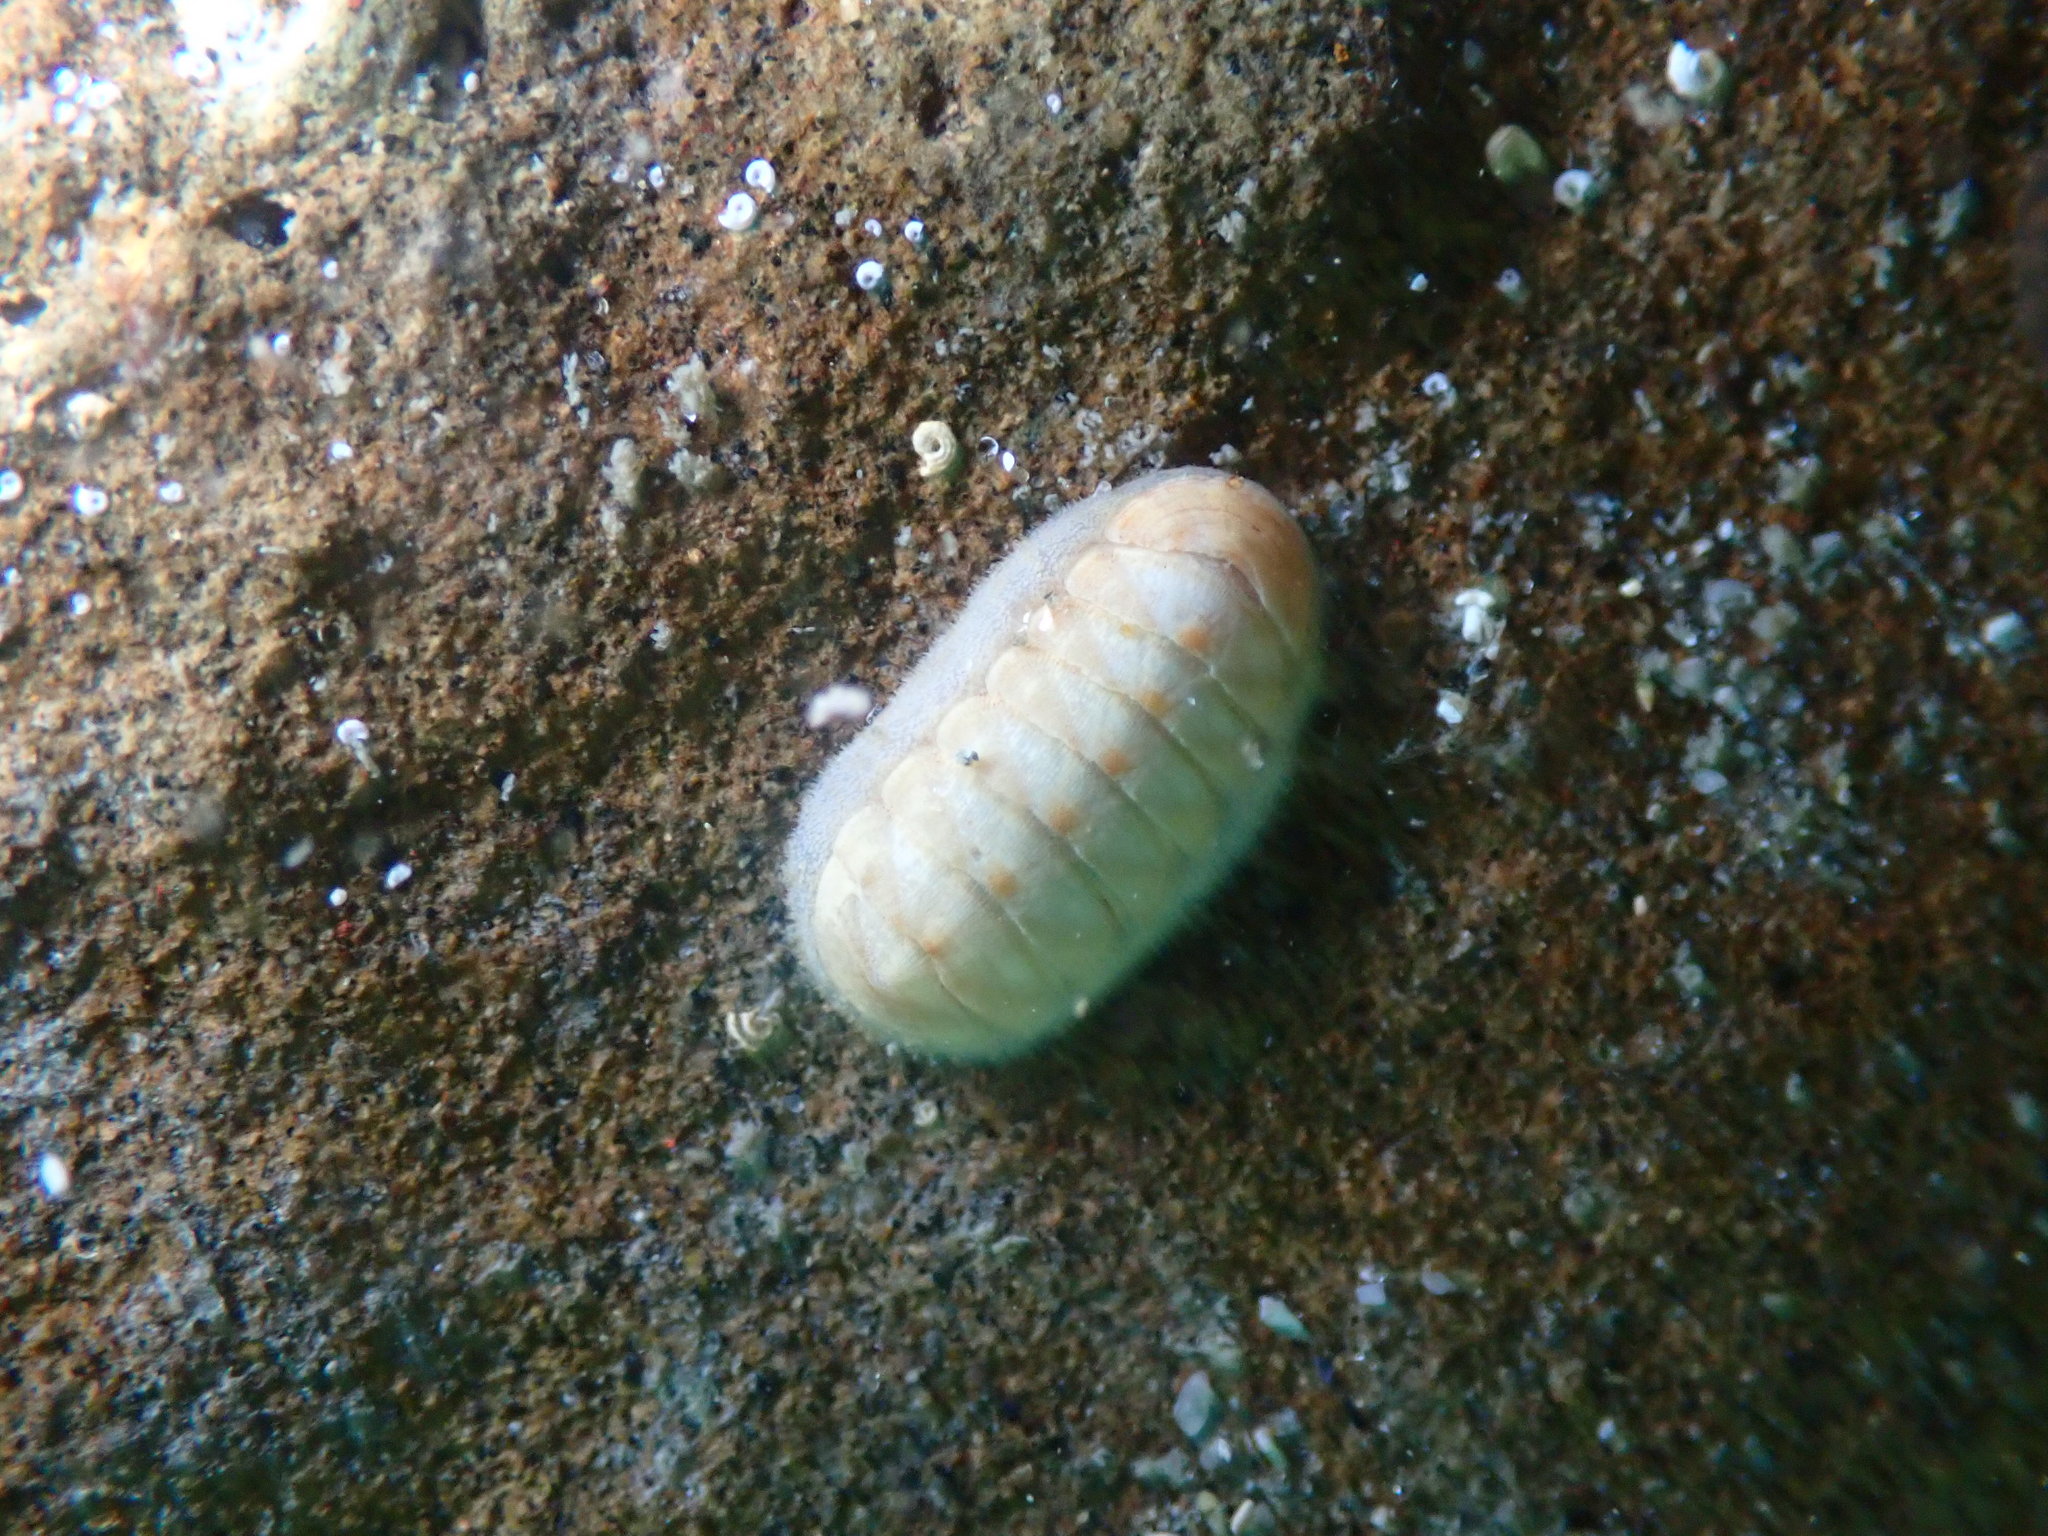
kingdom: Animalia
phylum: Mollusca
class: Polyplacophora
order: Lepidopleurida
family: Leptochitonidae
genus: Leptochiton
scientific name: Leptochiton inquinatus
